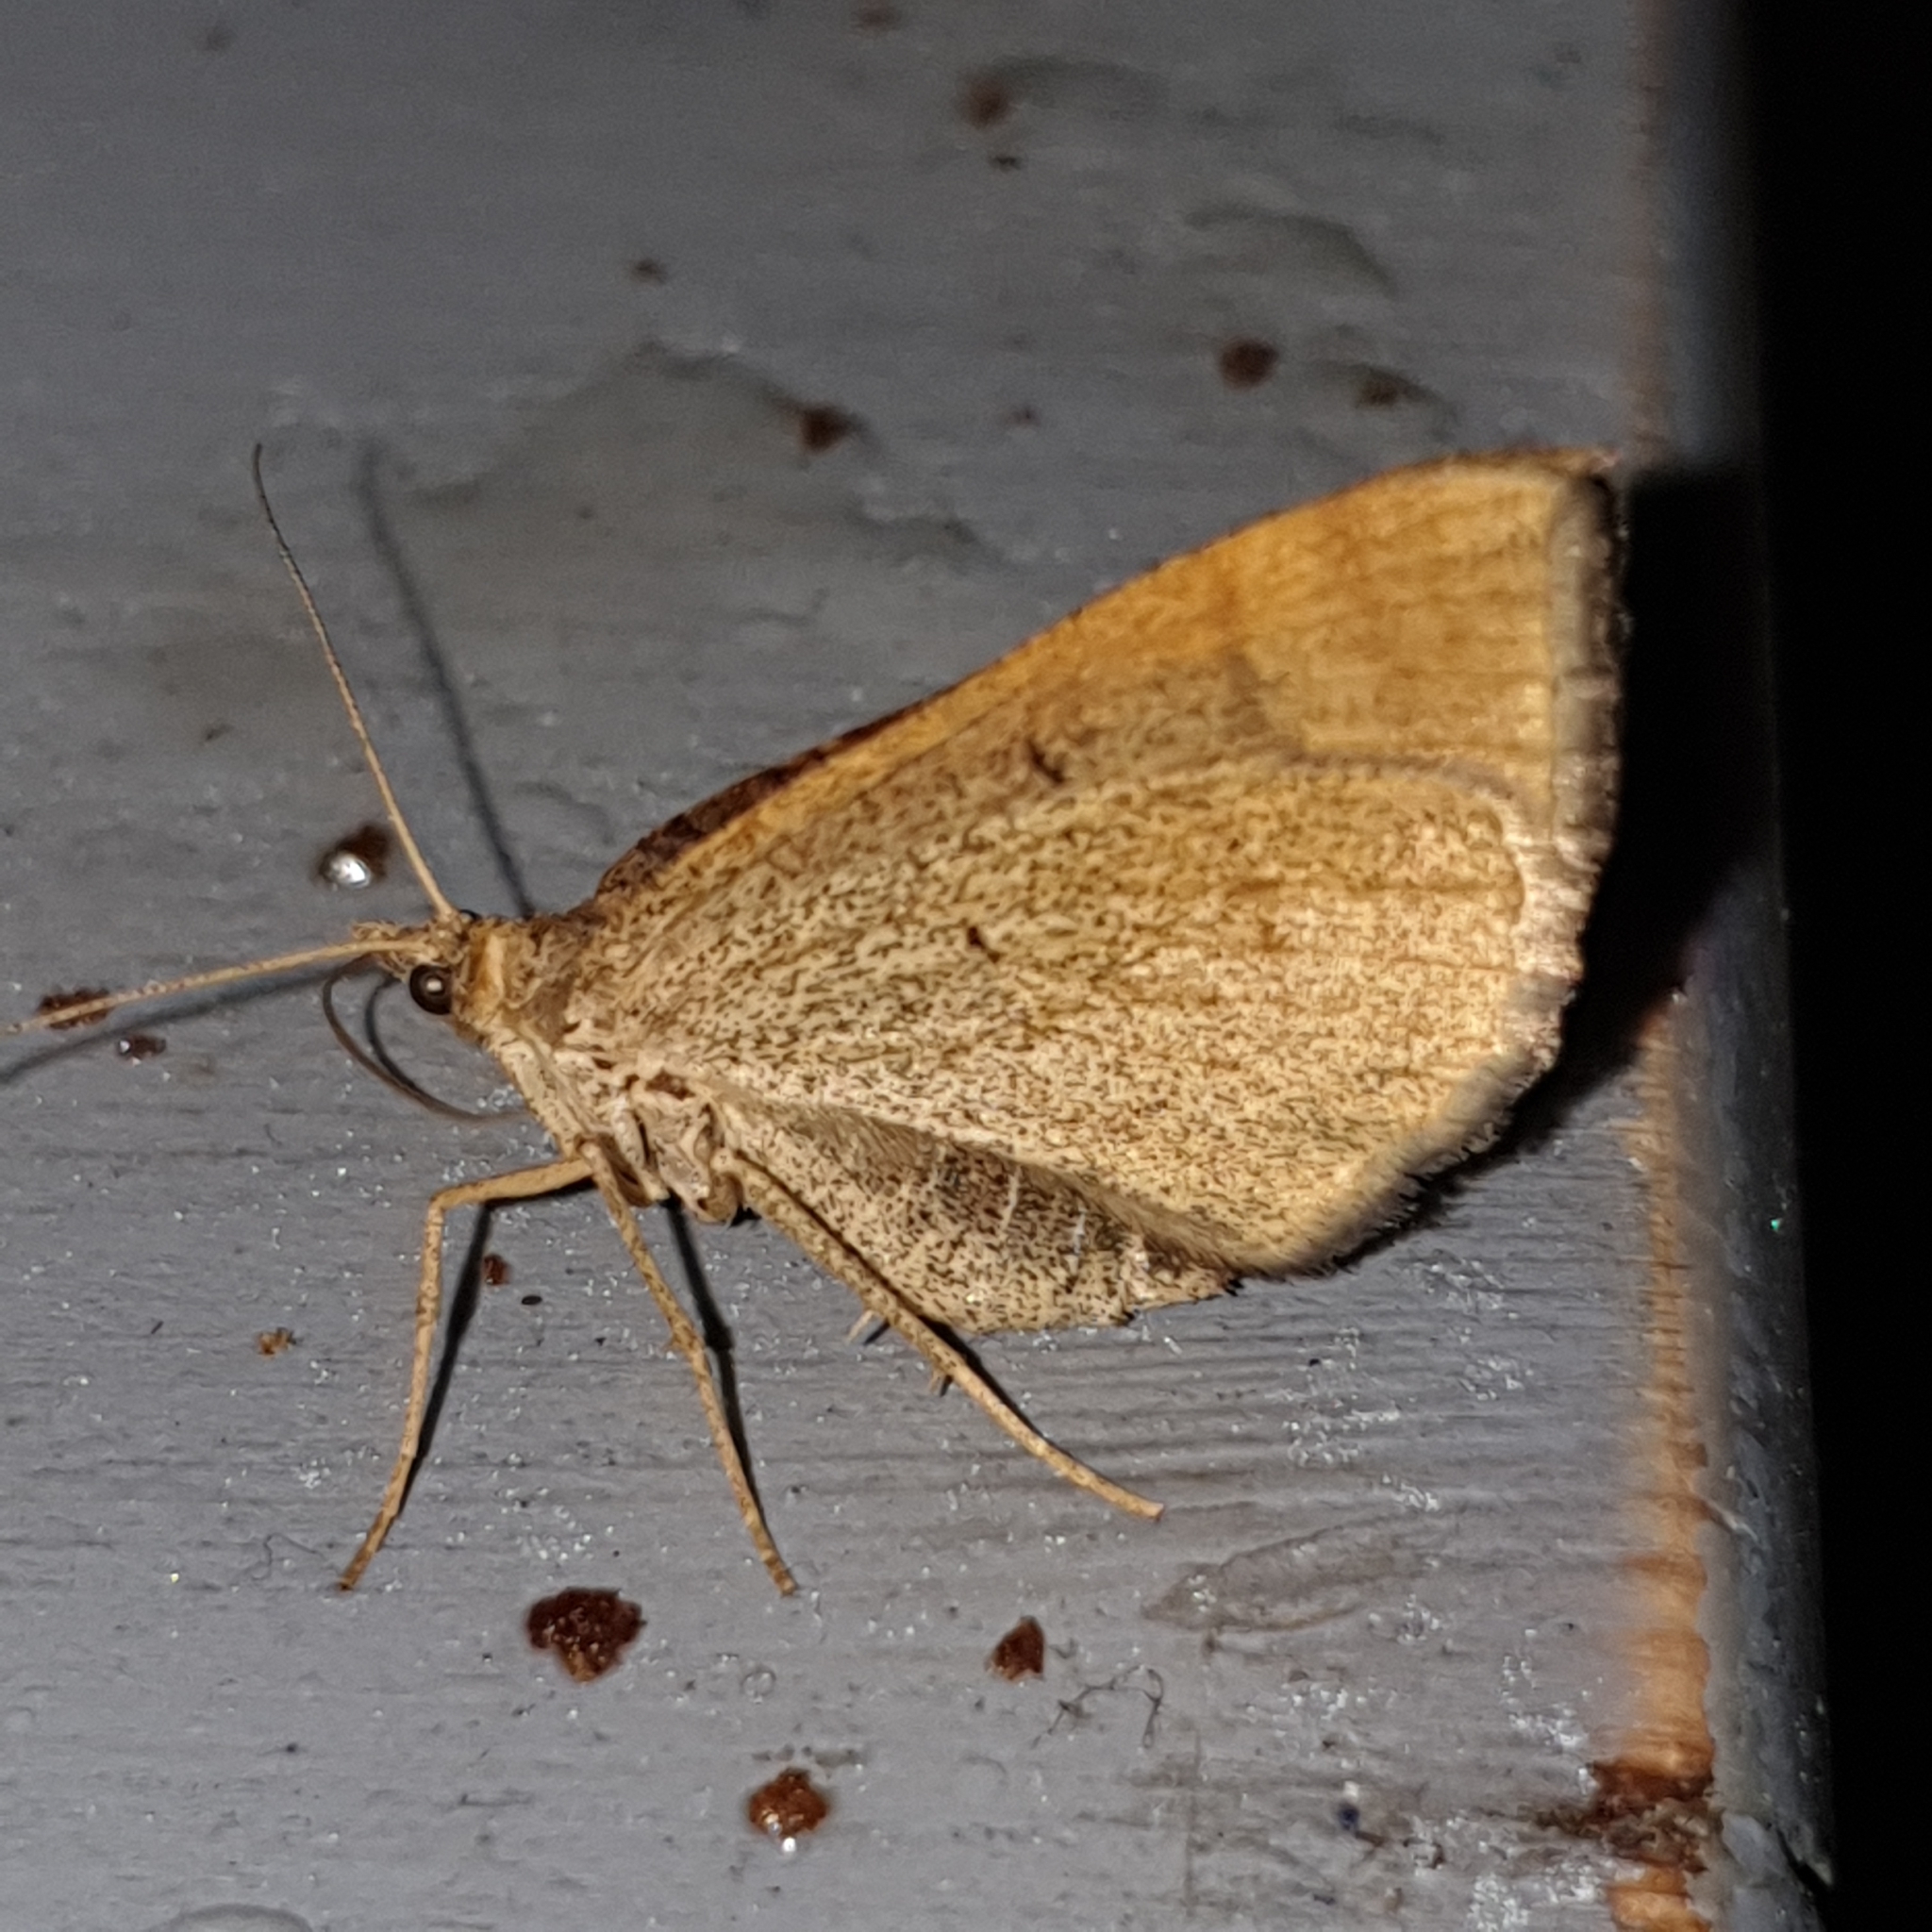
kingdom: Animalia
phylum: Arthropoda
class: Insecta
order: Lepidoptera
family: Geometridae
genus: Scotopteryx
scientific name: Scotopteryx chenopodiata
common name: Shaded broad-bar
